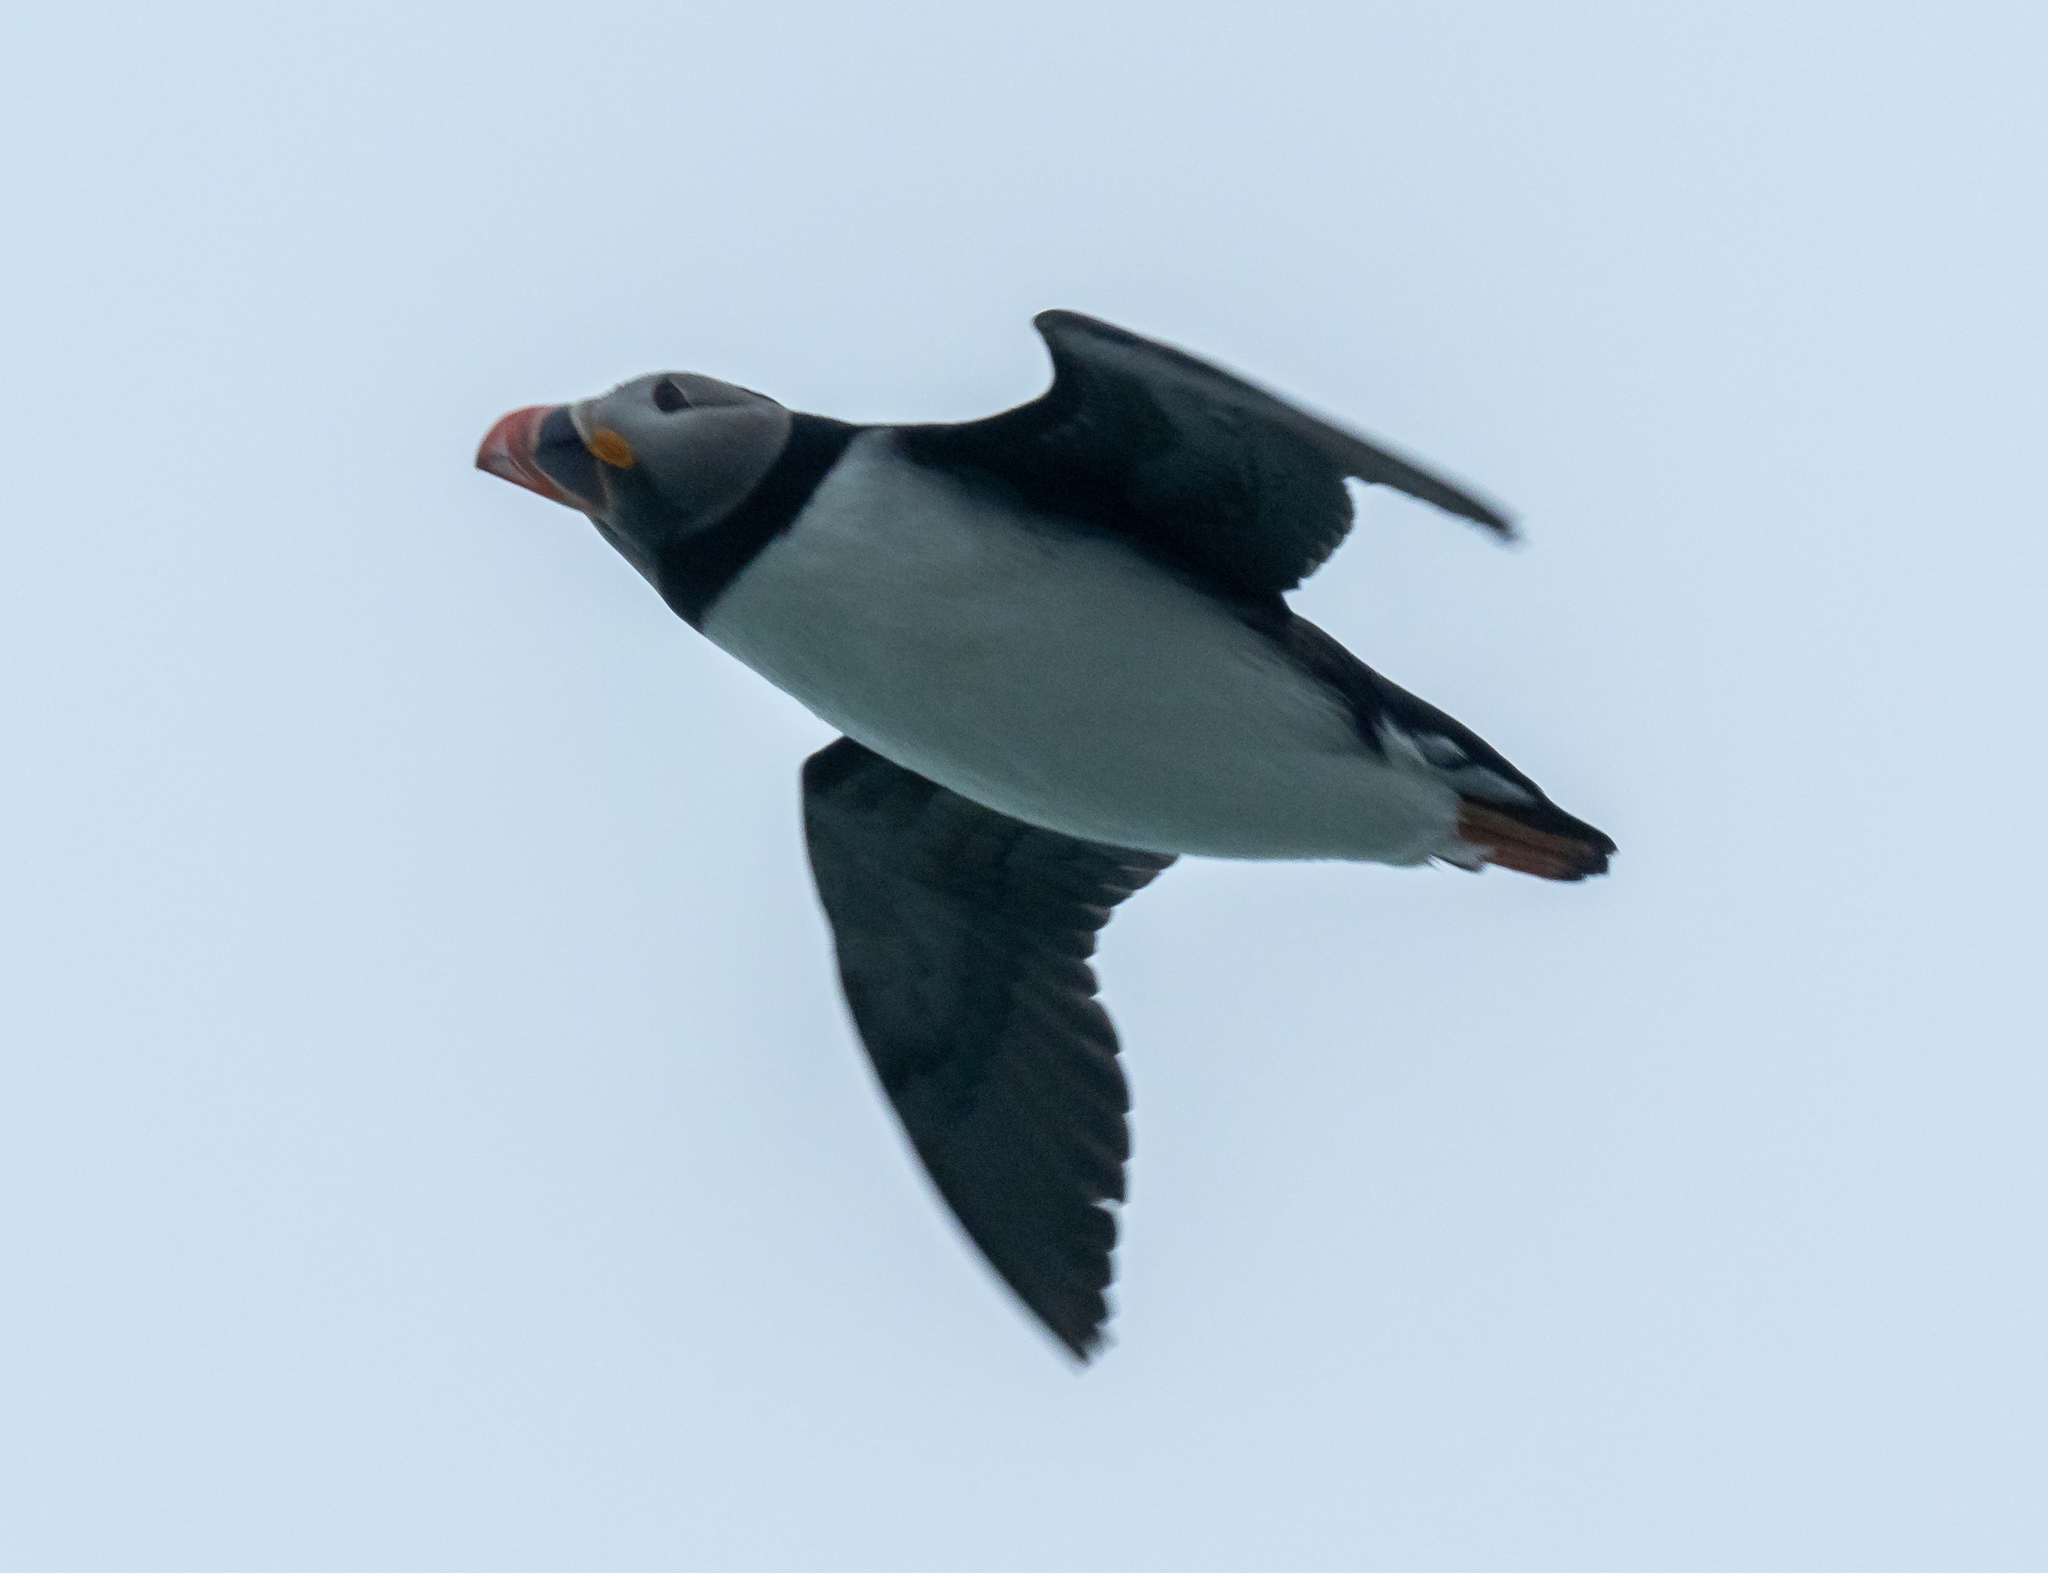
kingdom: Animalia
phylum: Chordata
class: Aves
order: Charadriiformes
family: Alcidae
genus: Fratercula
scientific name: Fratercula arctica
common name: Atlantic puffin
